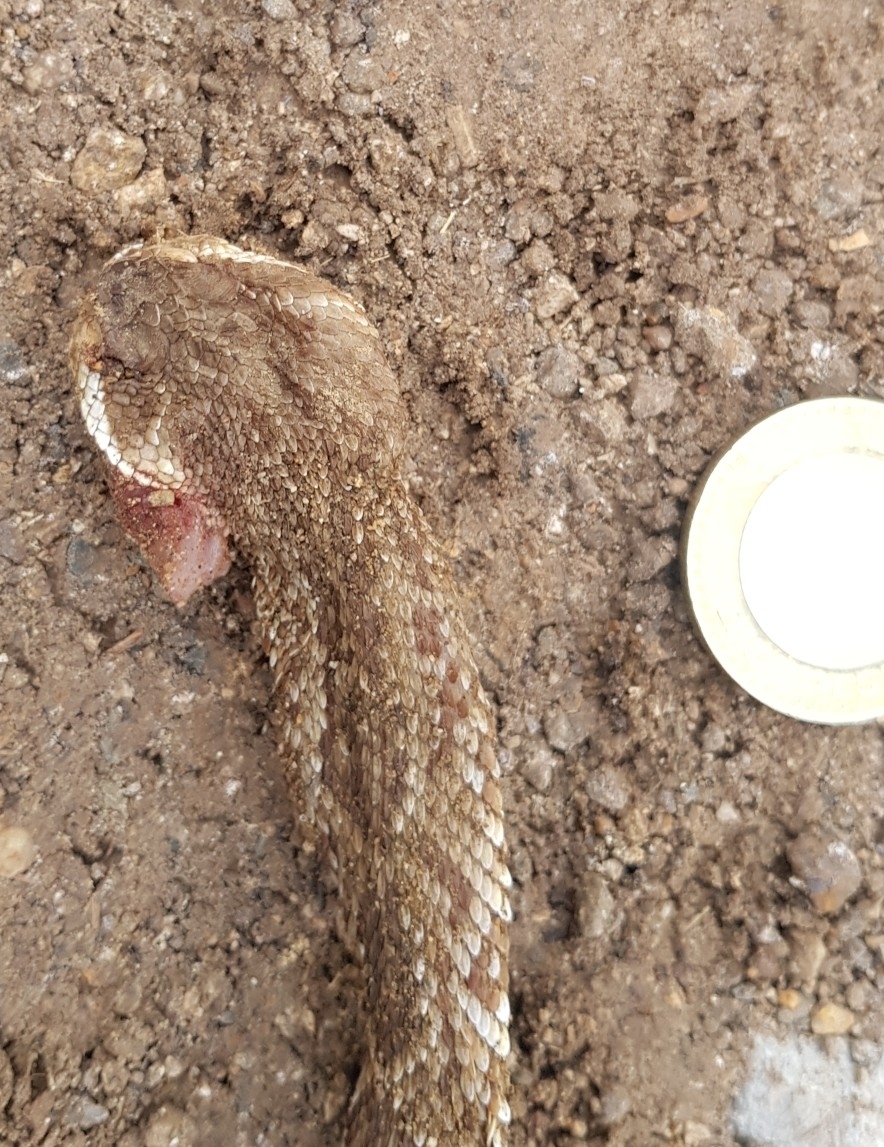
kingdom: Animalia
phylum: Chordata
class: Squamata
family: Viperidae
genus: Crotalus
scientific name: Crotalus molossus
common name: Black tailed rattlesnake
